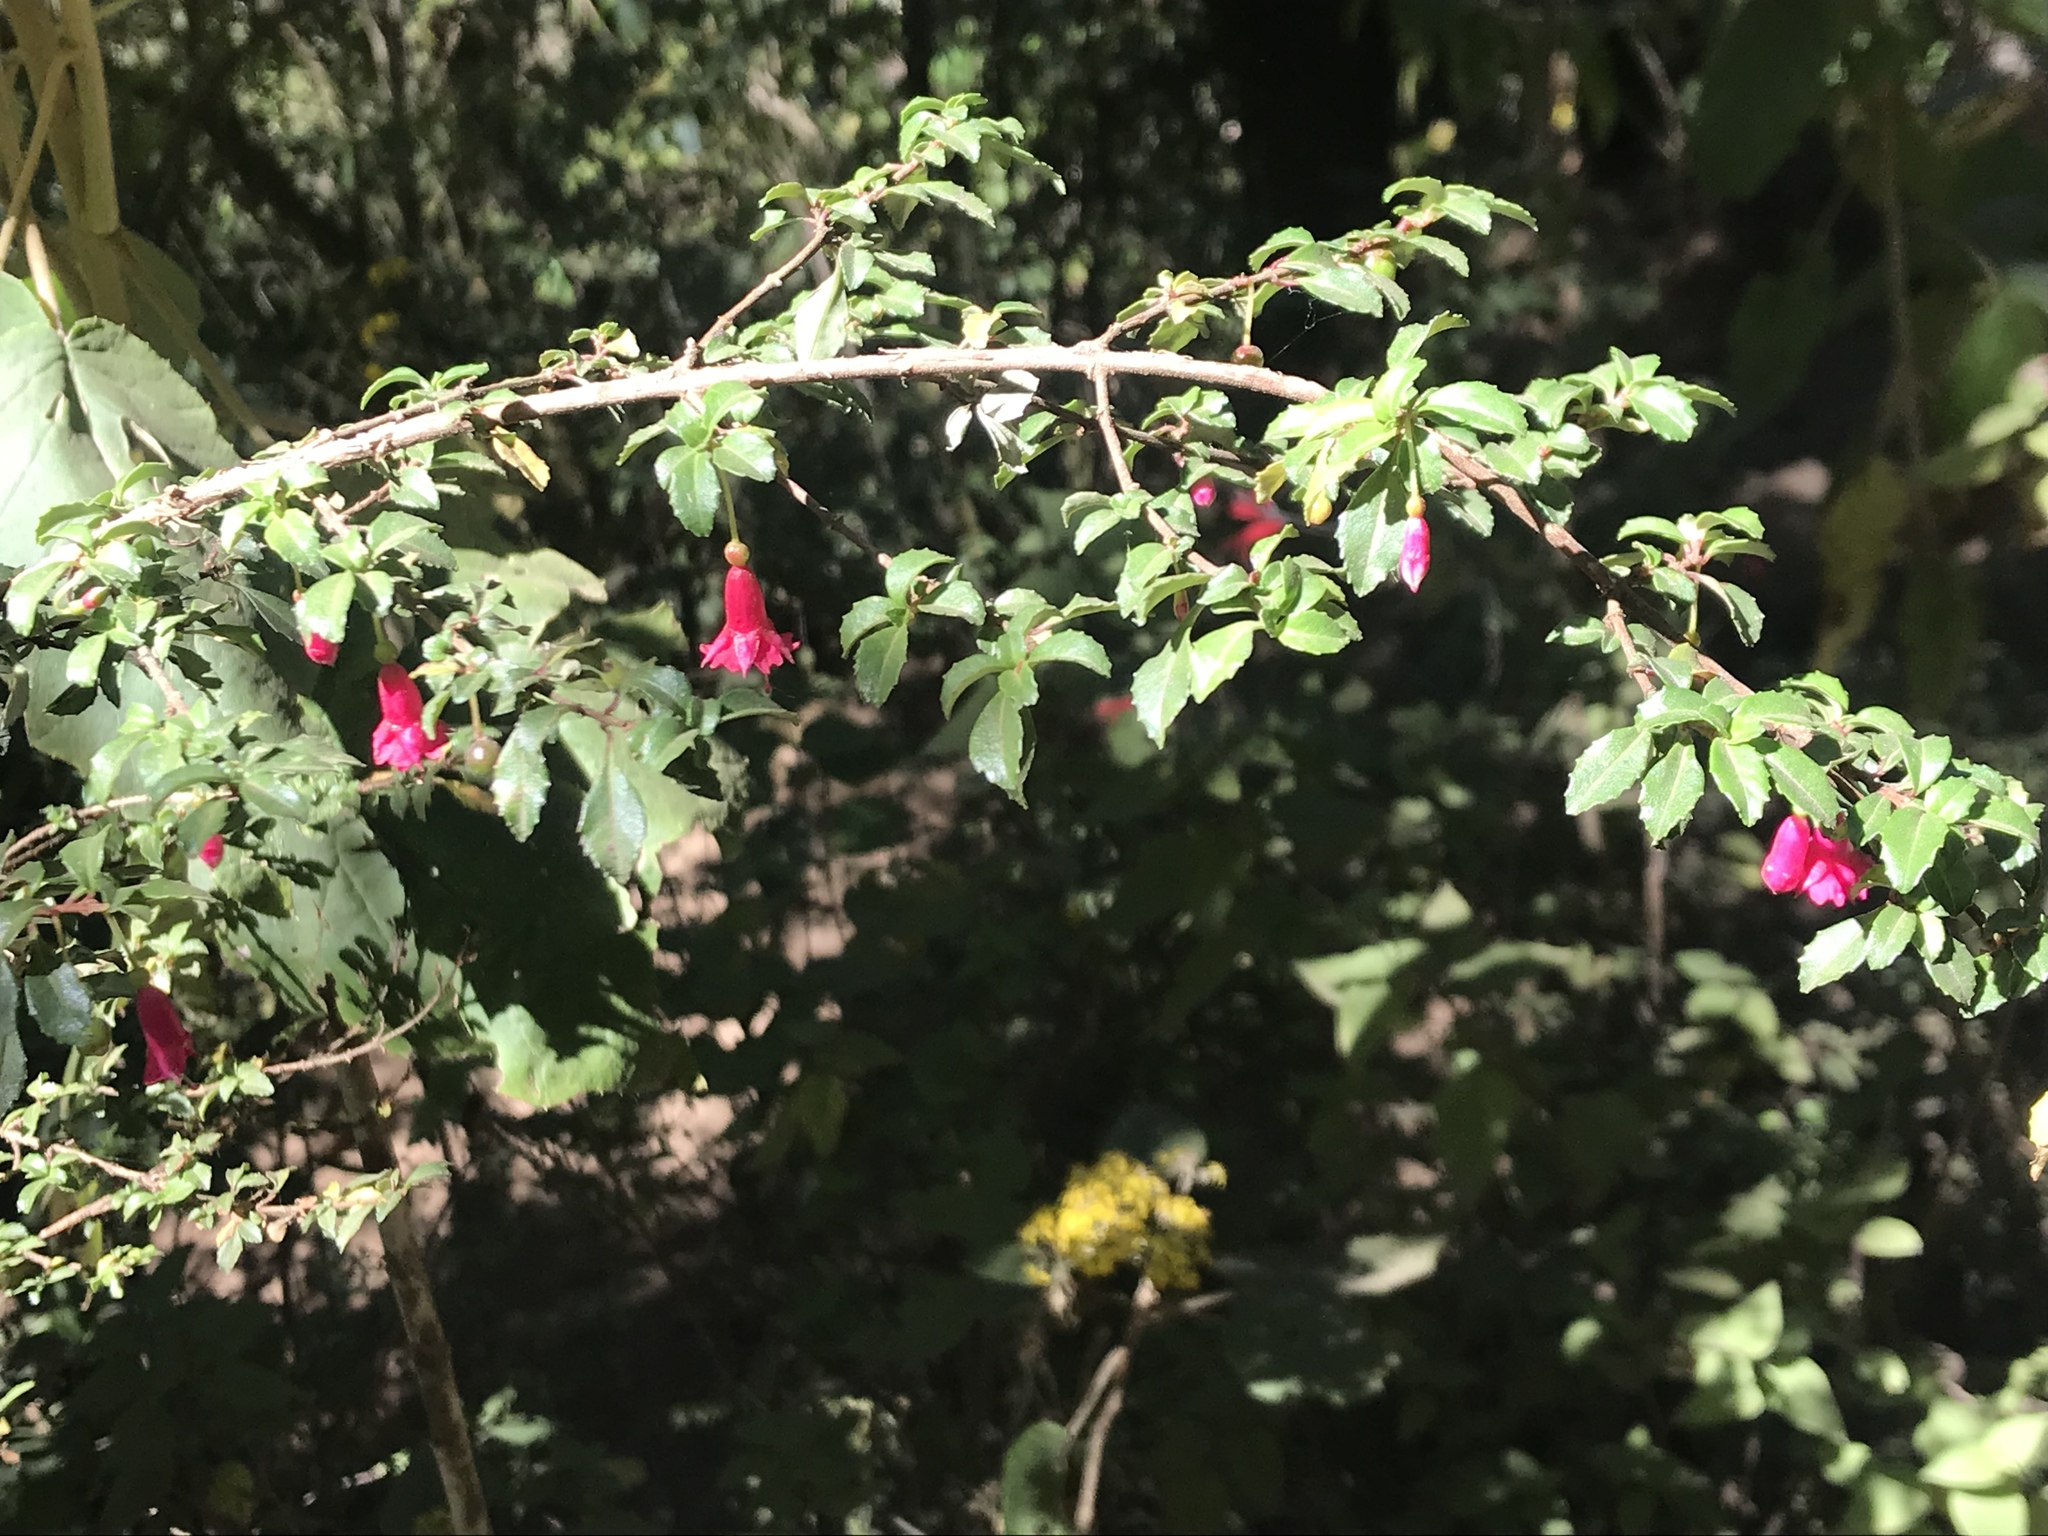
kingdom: Plantae
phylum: Tracheophyta
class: Magnoliopsida
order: Myrtales
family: Onagraceae
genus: Fuchsia
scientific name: Fuchsia microphylla
